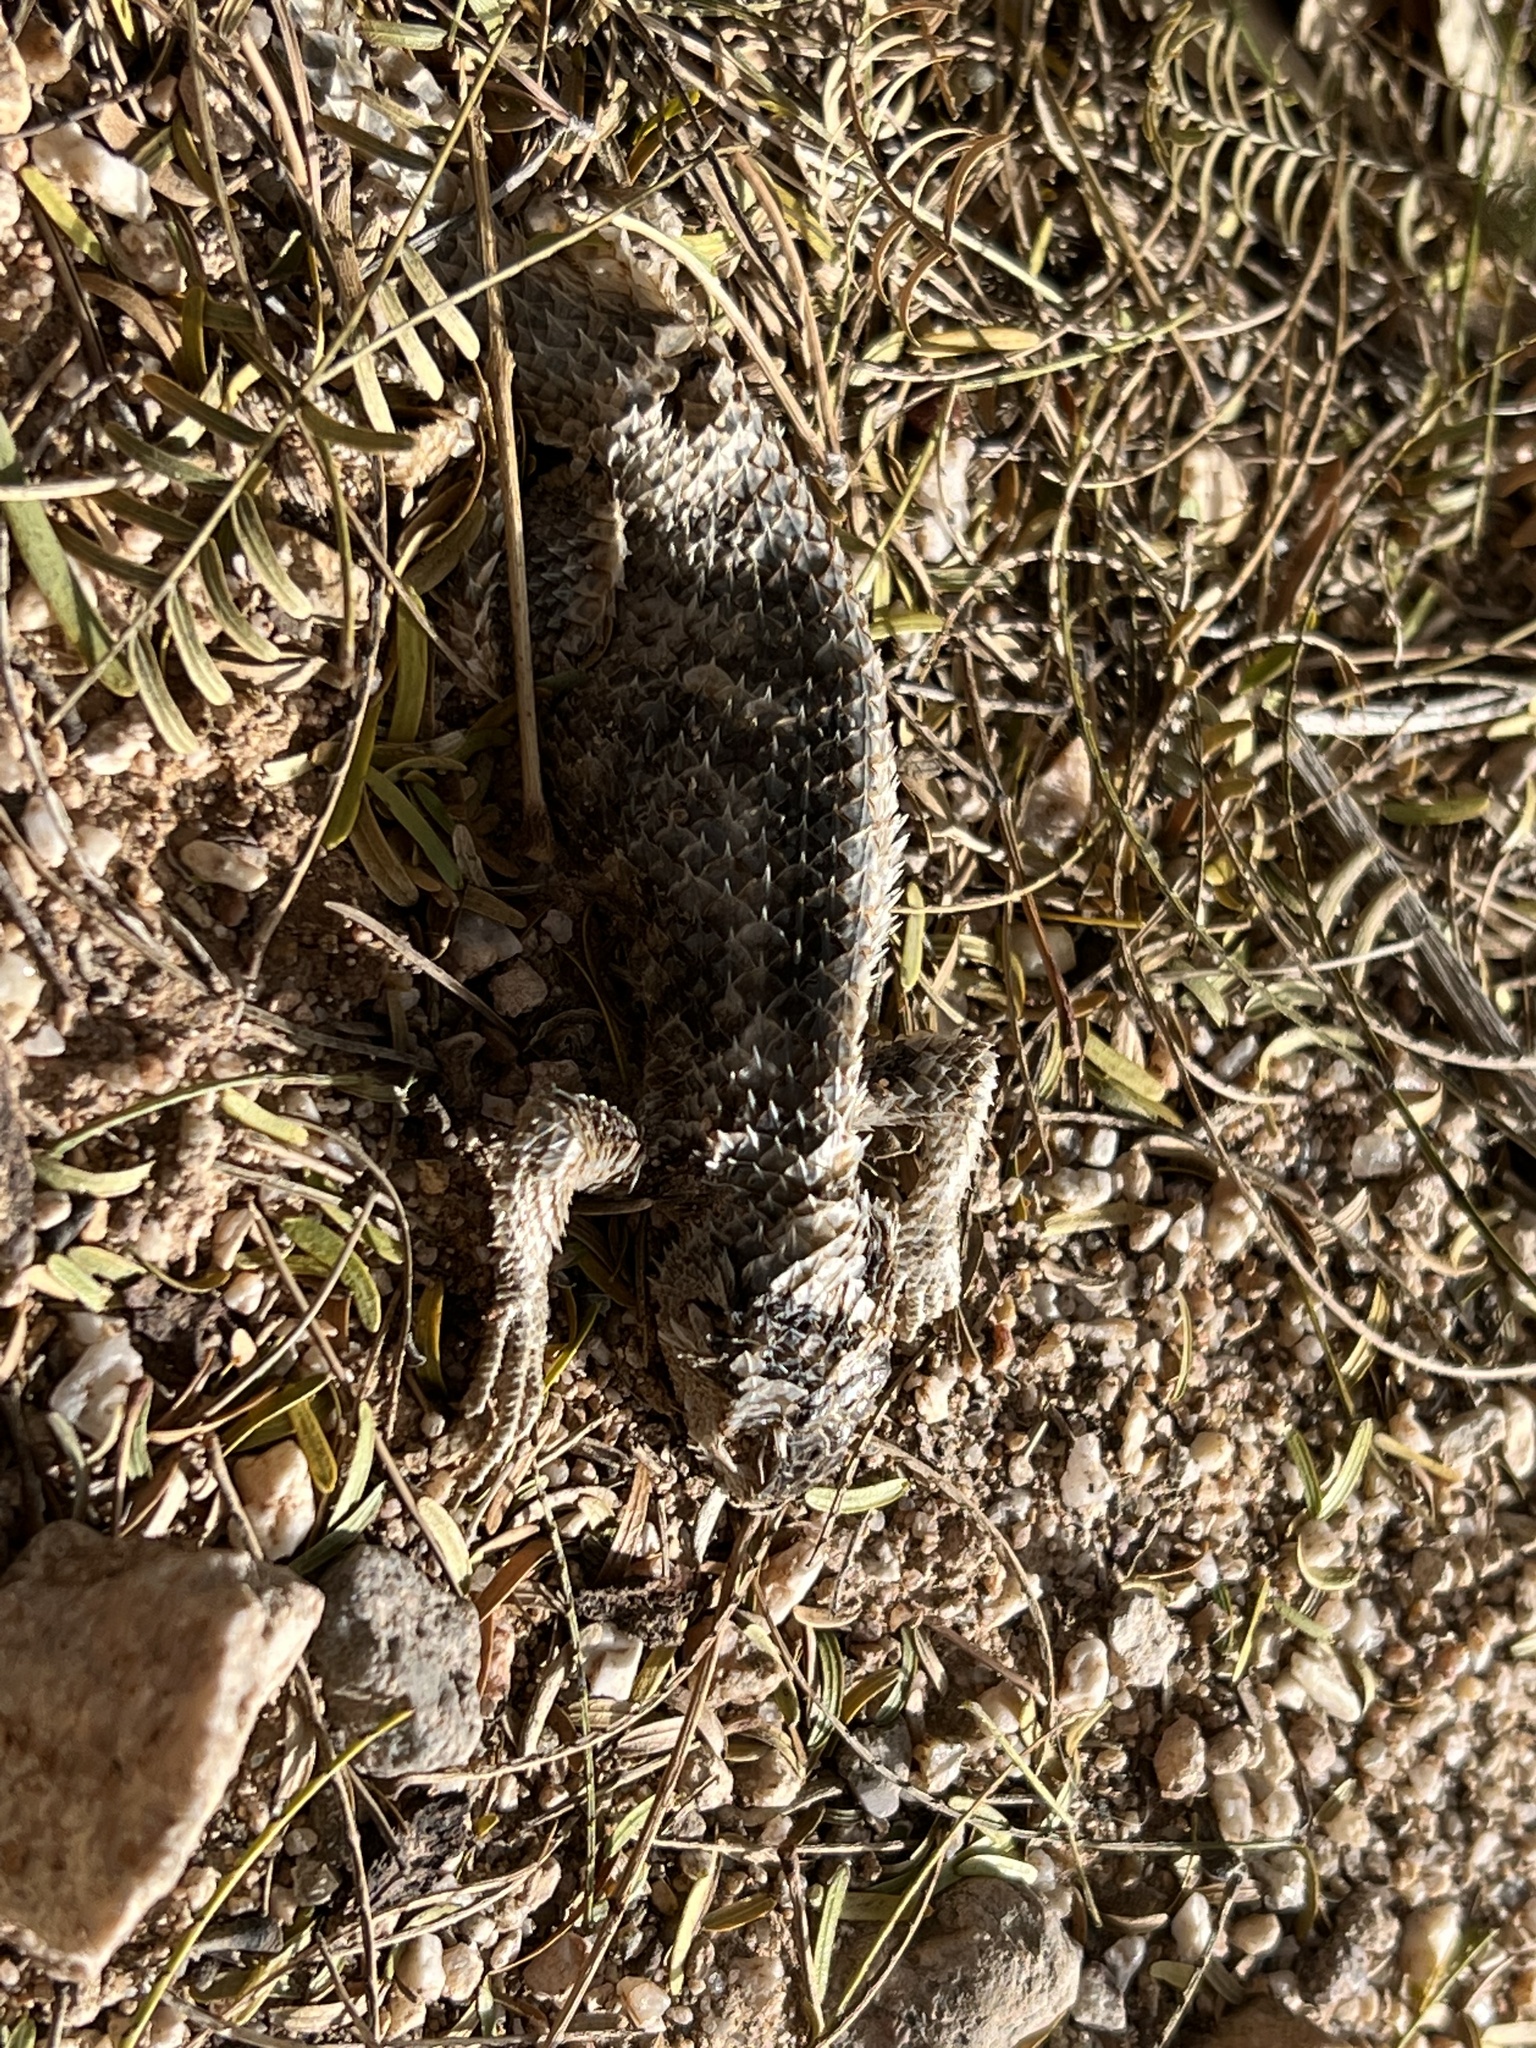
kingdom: Animalia
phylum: Chordata
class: Squamata
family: Phrynosomatidae
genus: Sceloporus
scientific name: Sceloporus magister
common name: Desert spiny lizard
